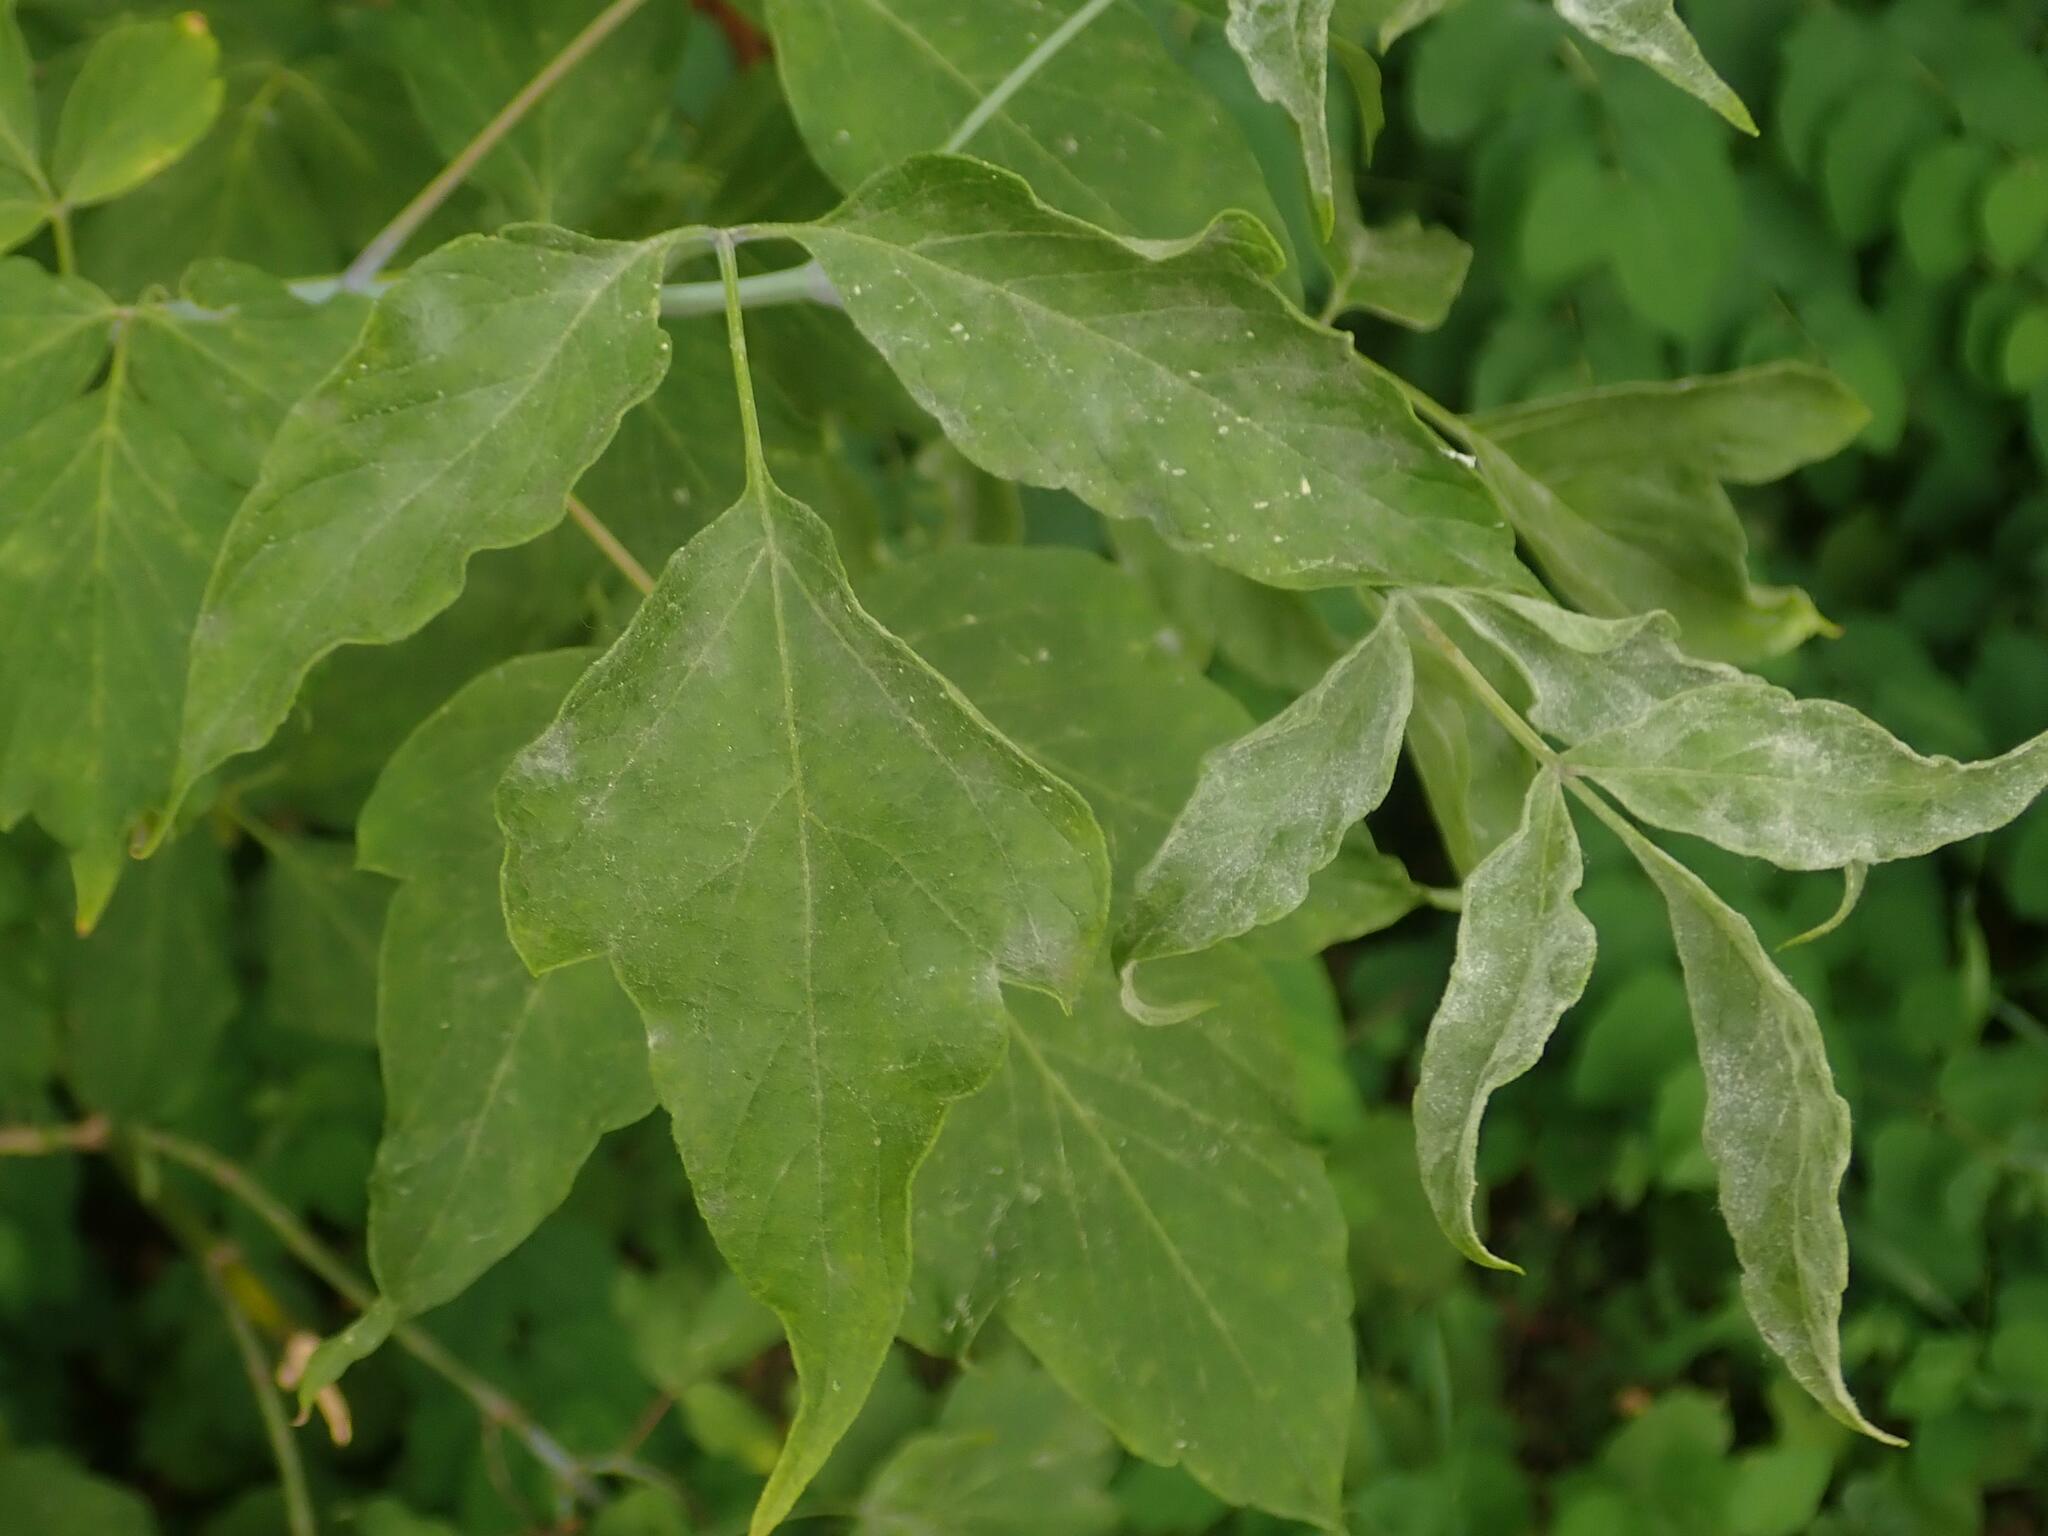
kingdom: Fungi
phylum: Ascomycota
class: Leotiomycetes
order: Helotiales
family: Erysiphaceae
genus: Sawadaea
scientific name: Sawadaea bicornis
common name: Maple mildew
